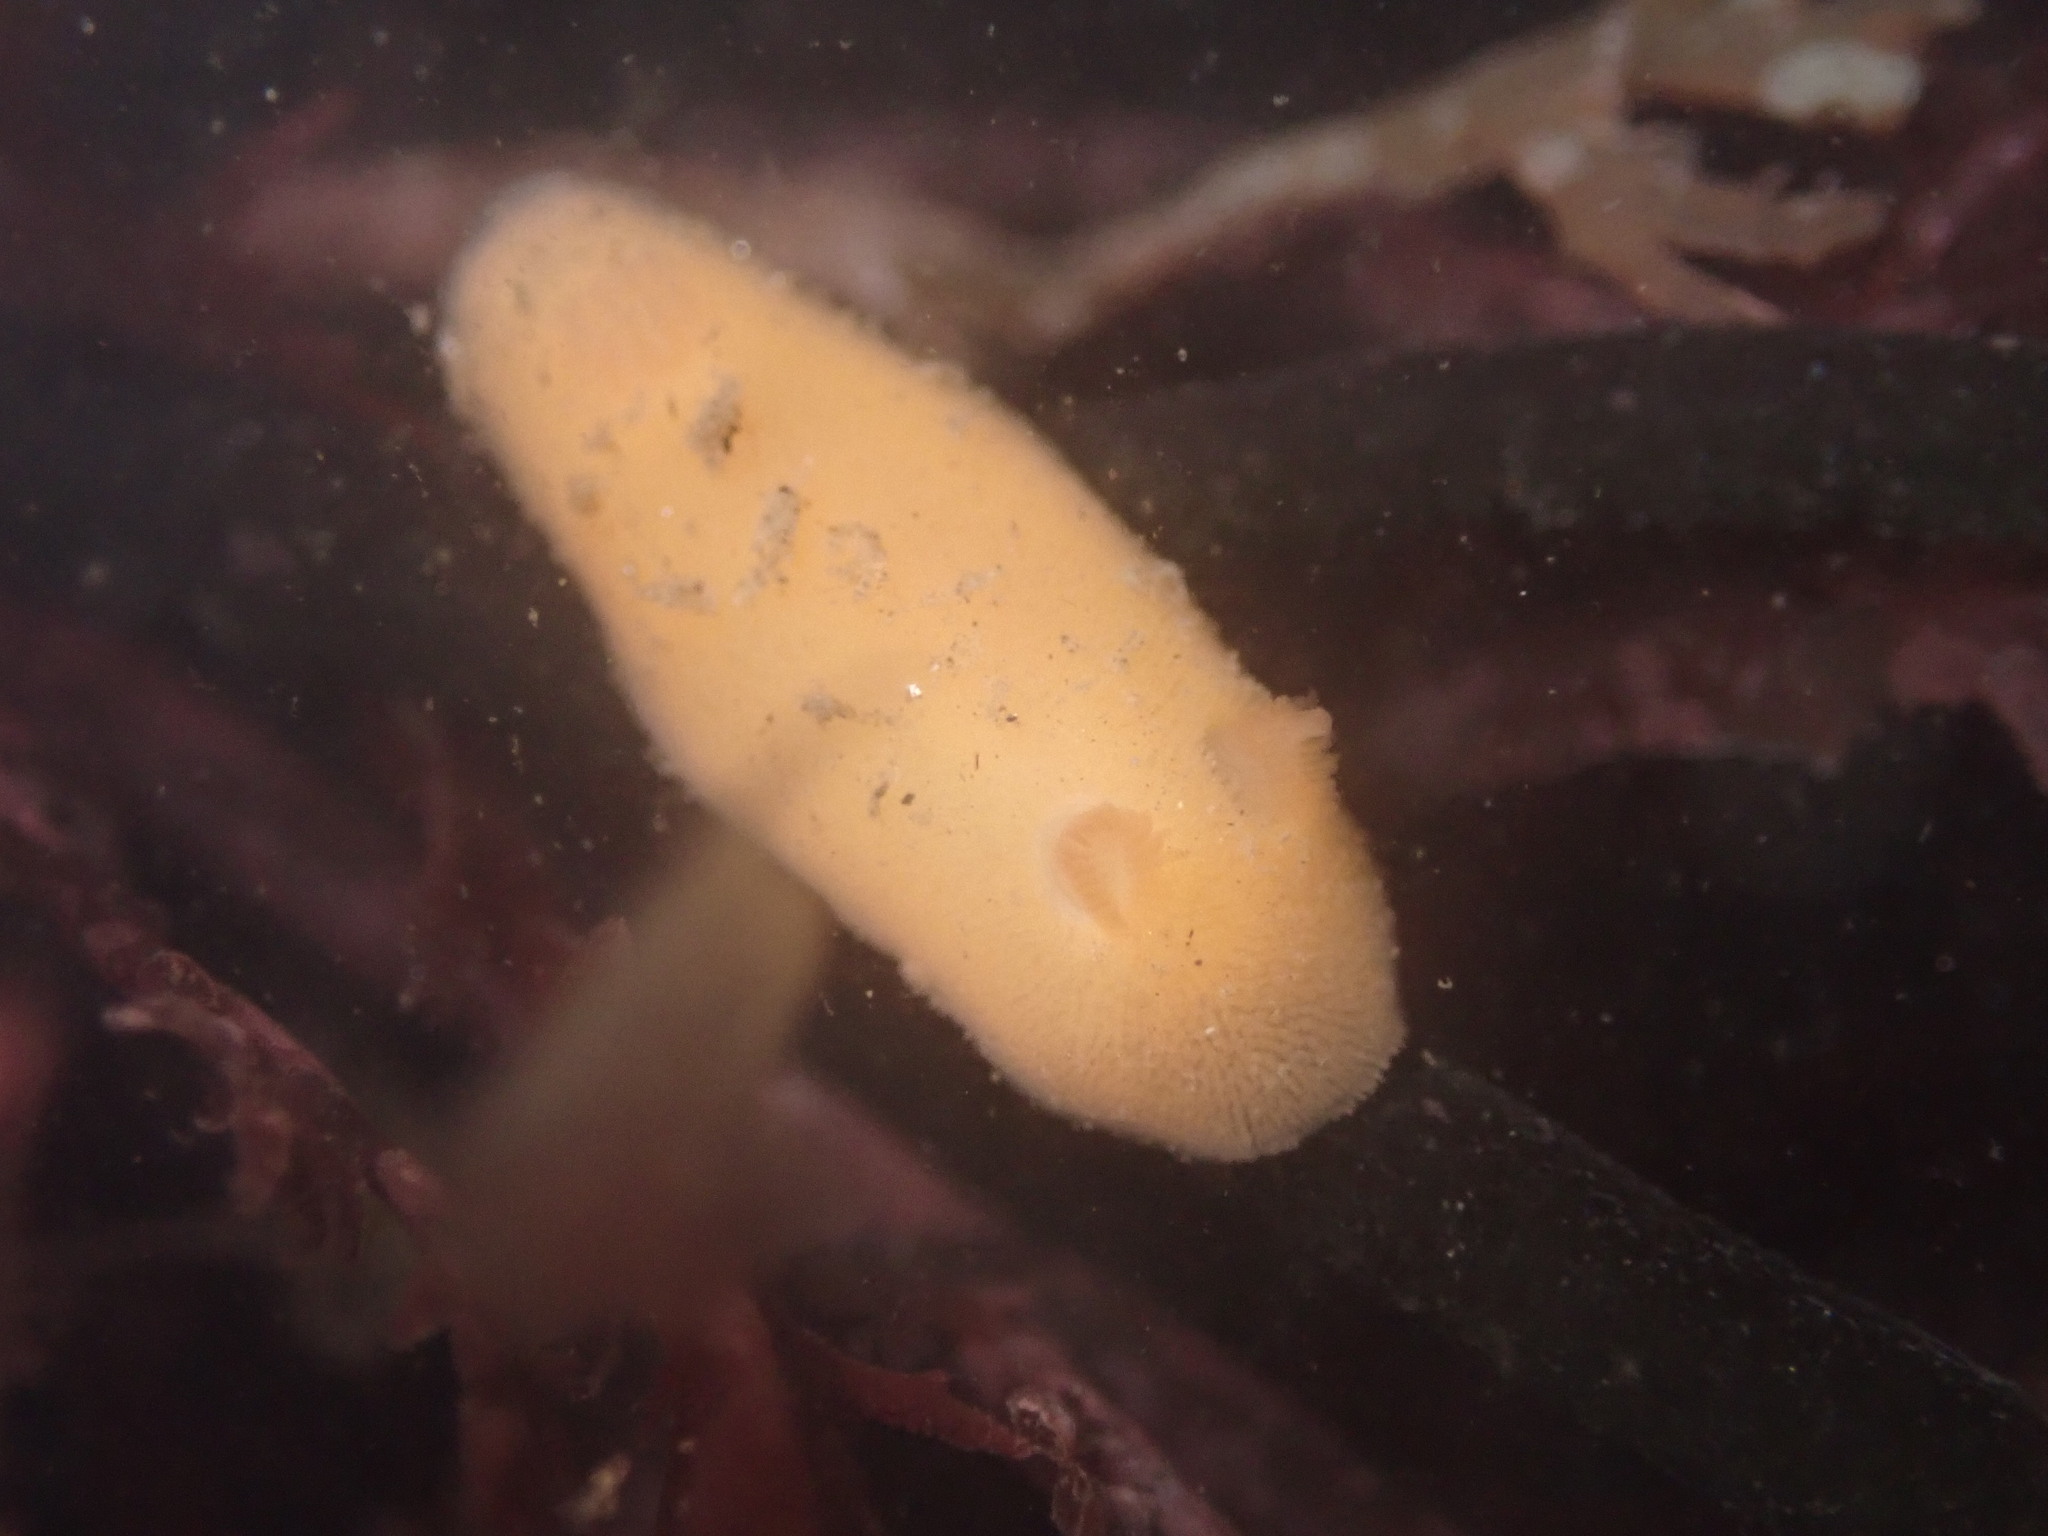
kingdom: Animalia
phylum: Mollusca
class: Gastropoda
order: Nudibranchia
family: Discodorididae
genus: Rostanga
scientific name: Rostanga pulchra
